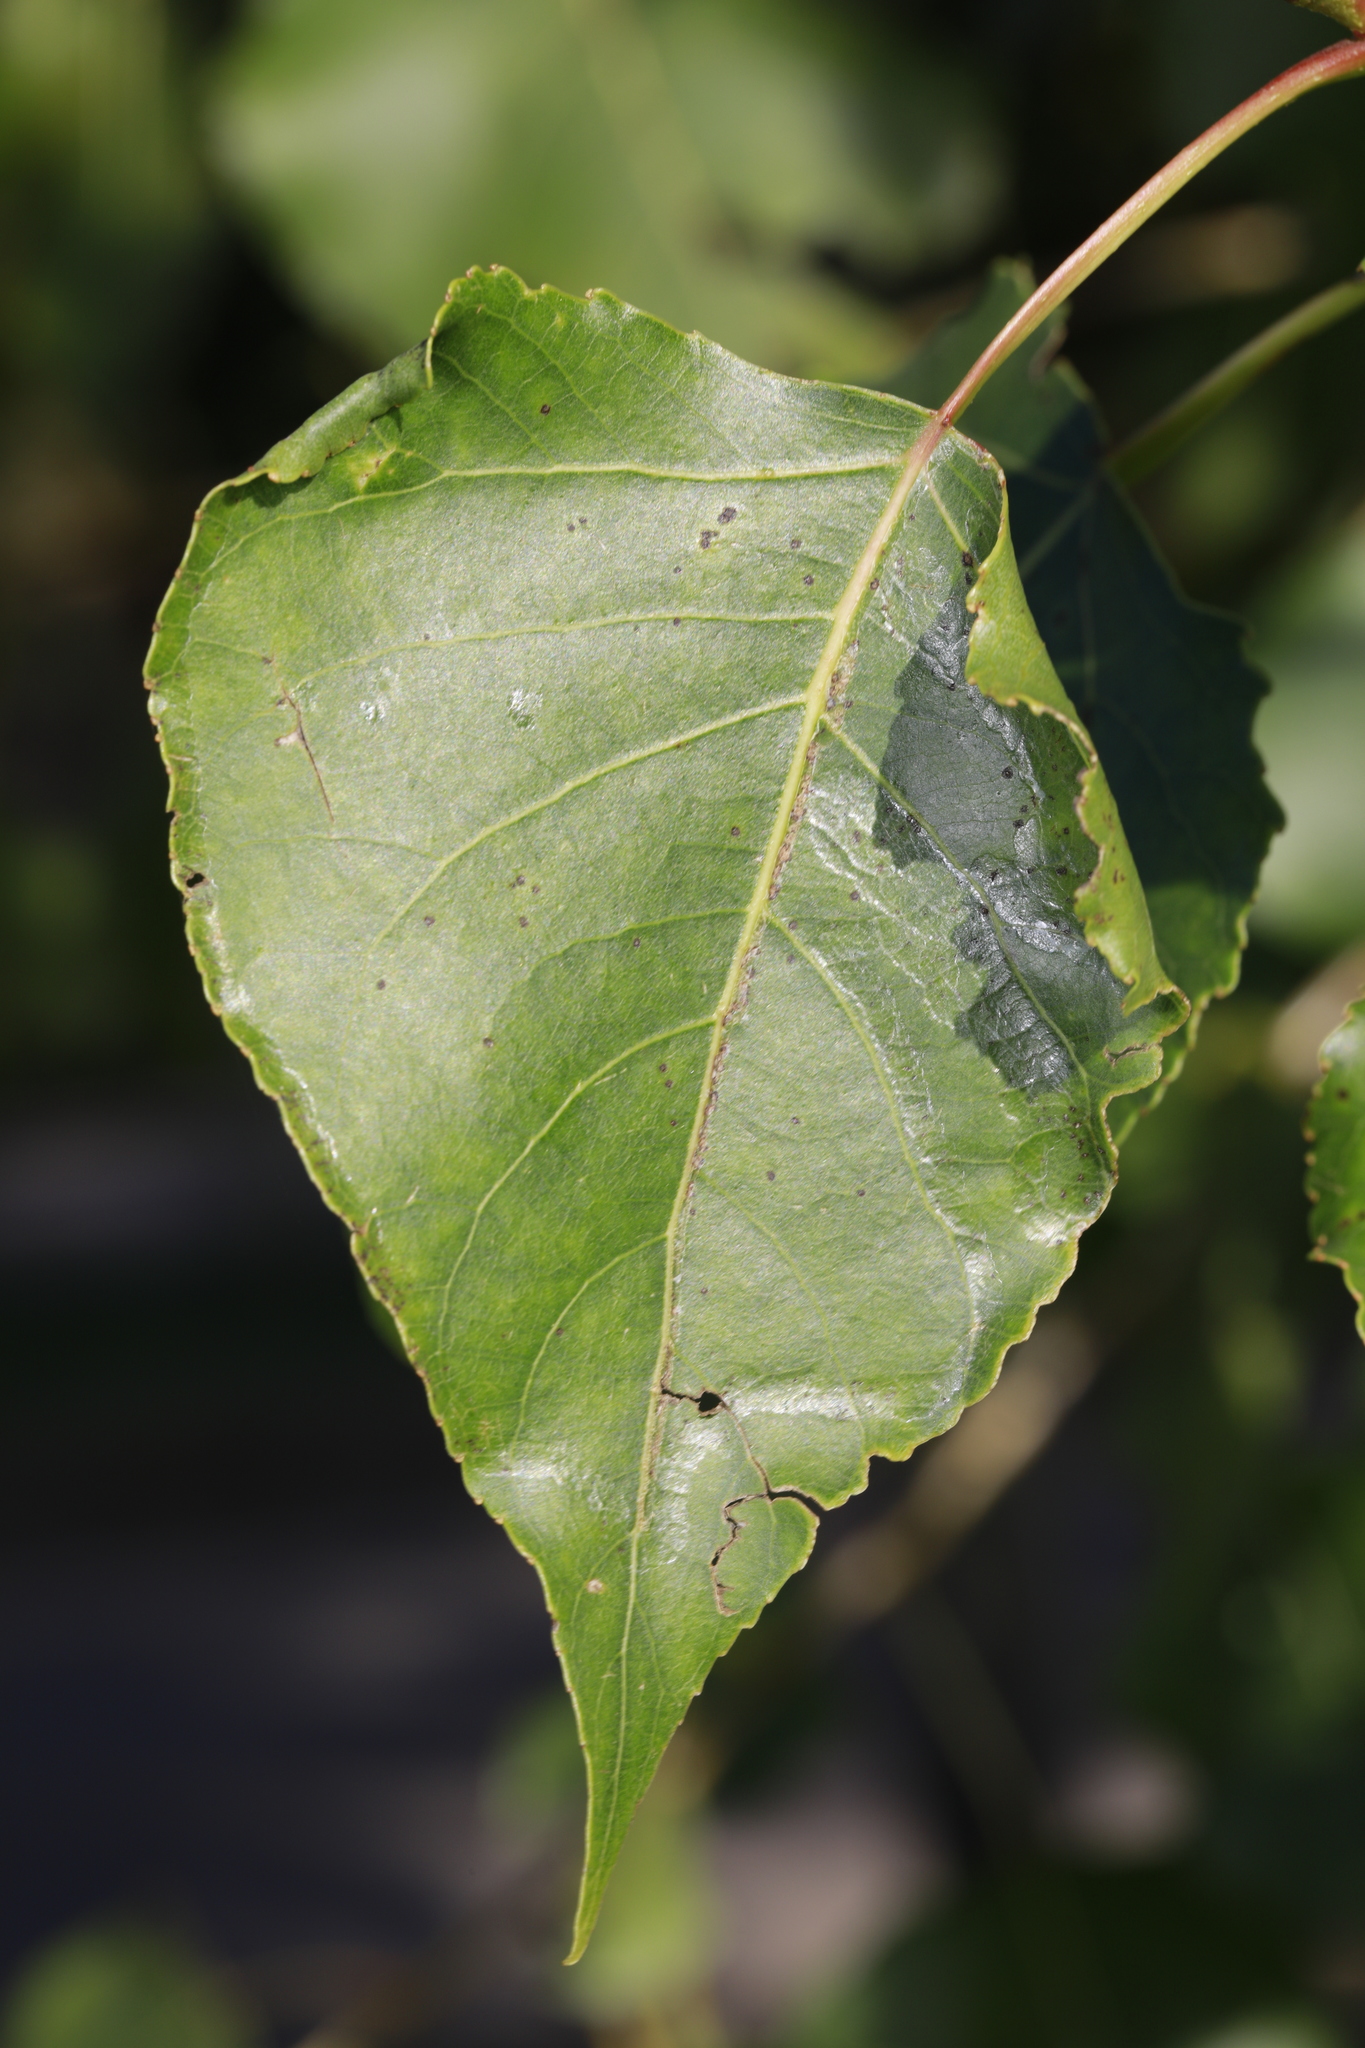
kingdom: Animalia
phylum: Arthropoda
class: Insecta
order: Lepidoptera
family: Gracillariidae
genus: Phyllocnistis
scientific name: Phyllocnistis unipunctella
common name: Poplar bent-wing
